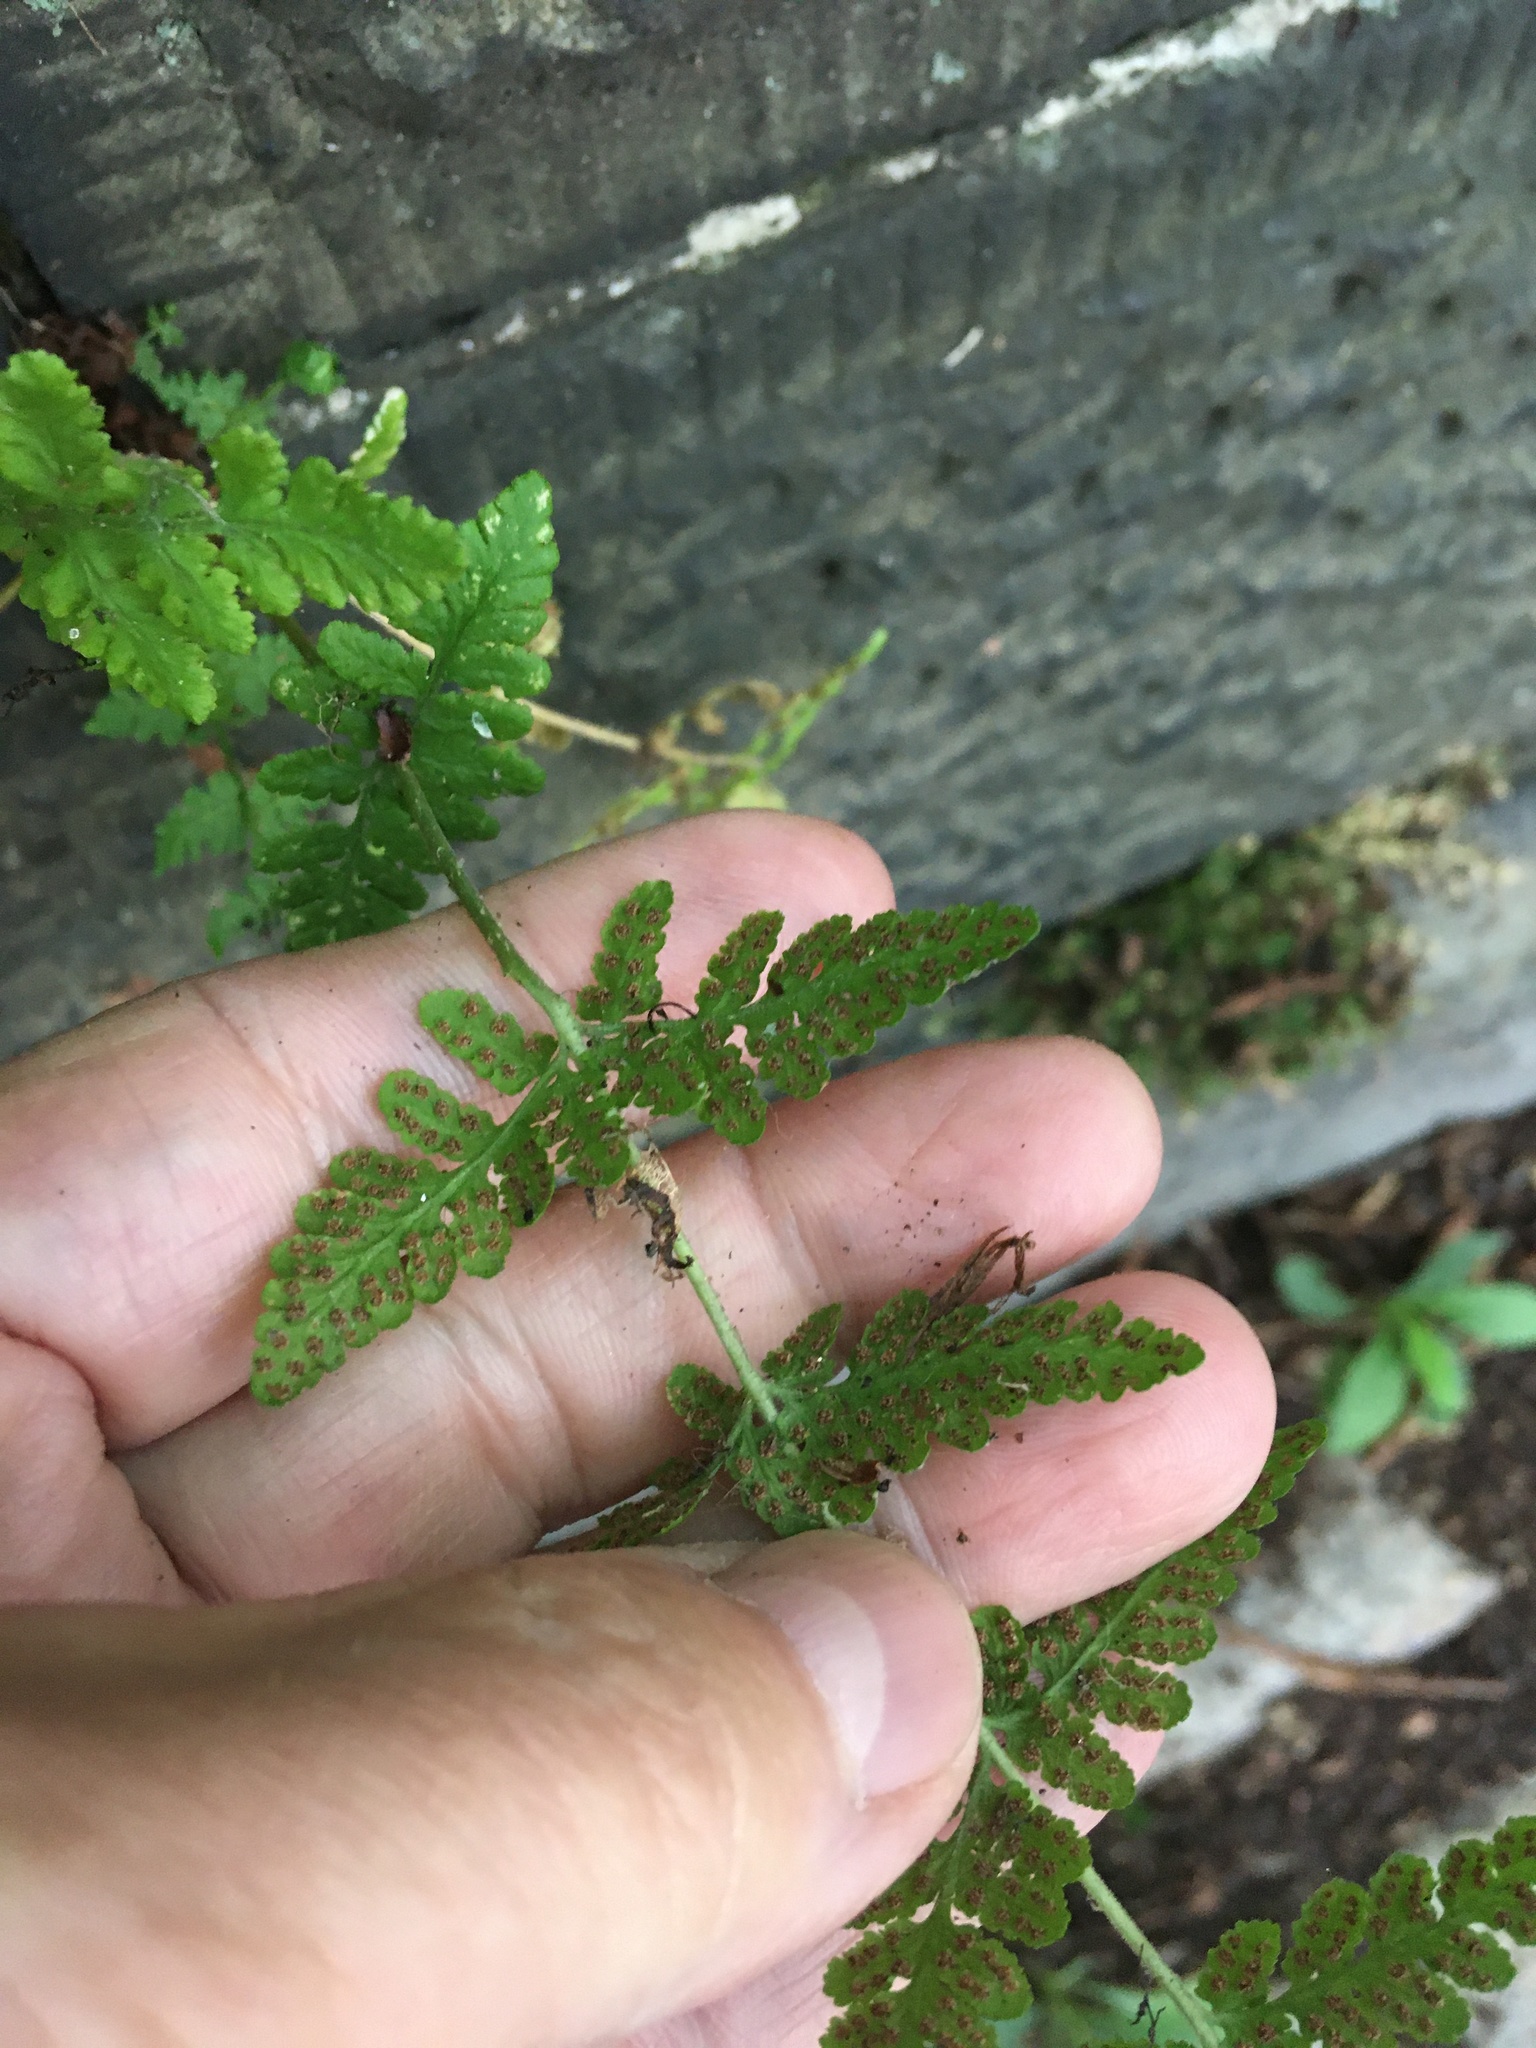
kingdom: Plantae
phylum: Tracheophyta
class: Polypodiopsida
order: Polypodiales
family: Woodsiaceae
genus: Physematium
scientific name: Physematium obtusum
